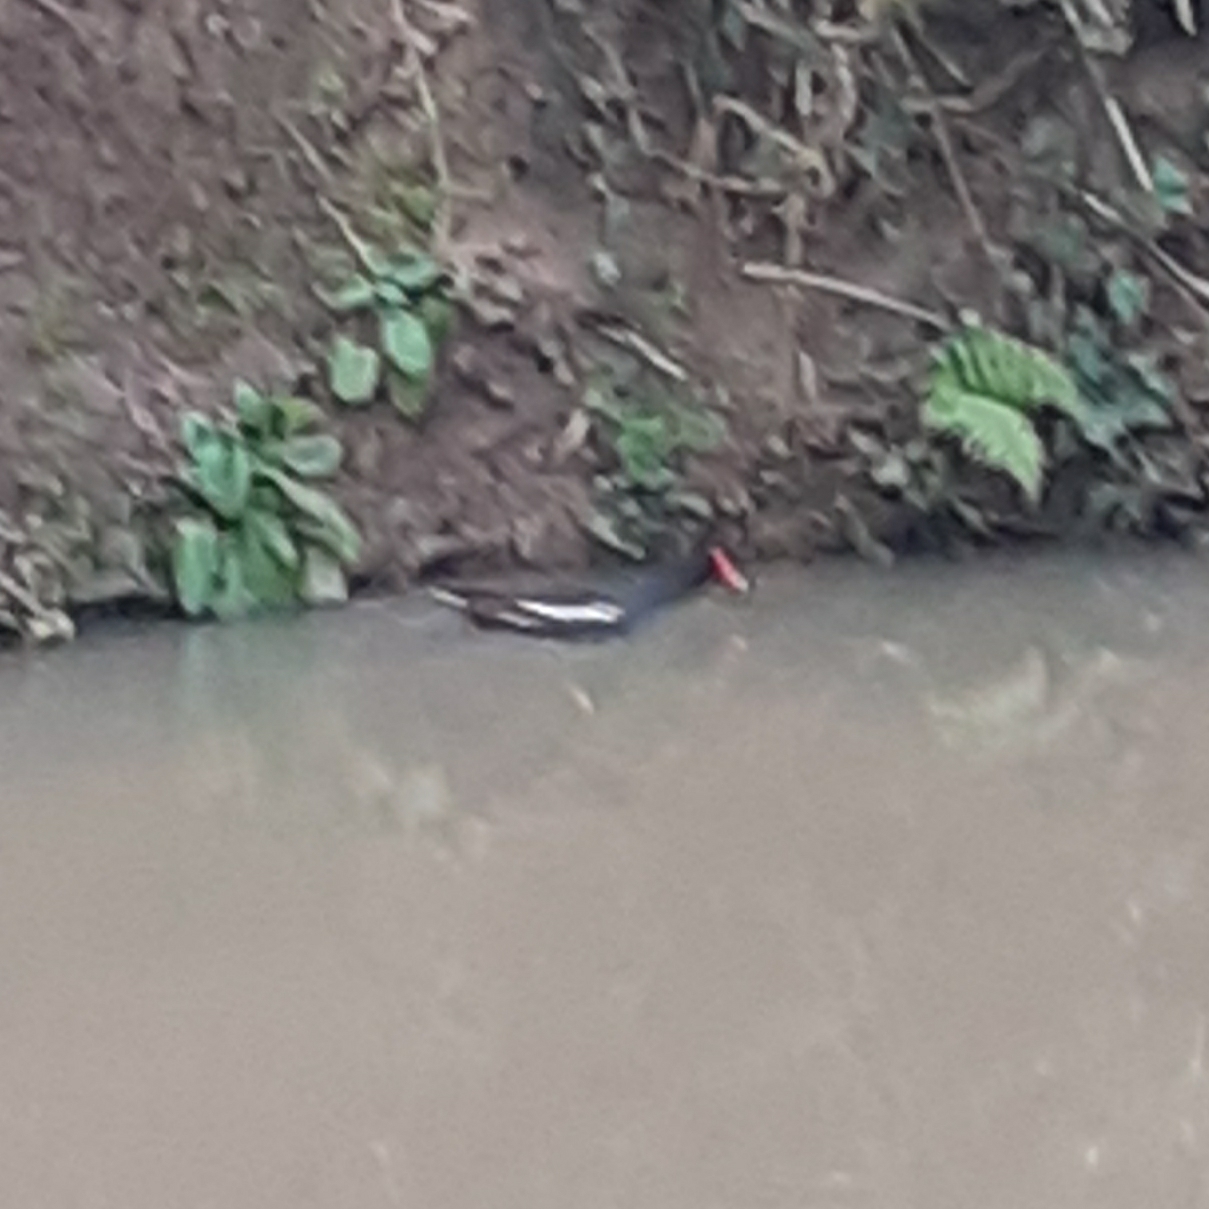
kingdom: Animalia
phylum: Chordata
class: Aves
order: Gruiformes
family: Rallidae
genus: Gallinula
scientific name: Gallinula chloropus
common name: Common moorhen
